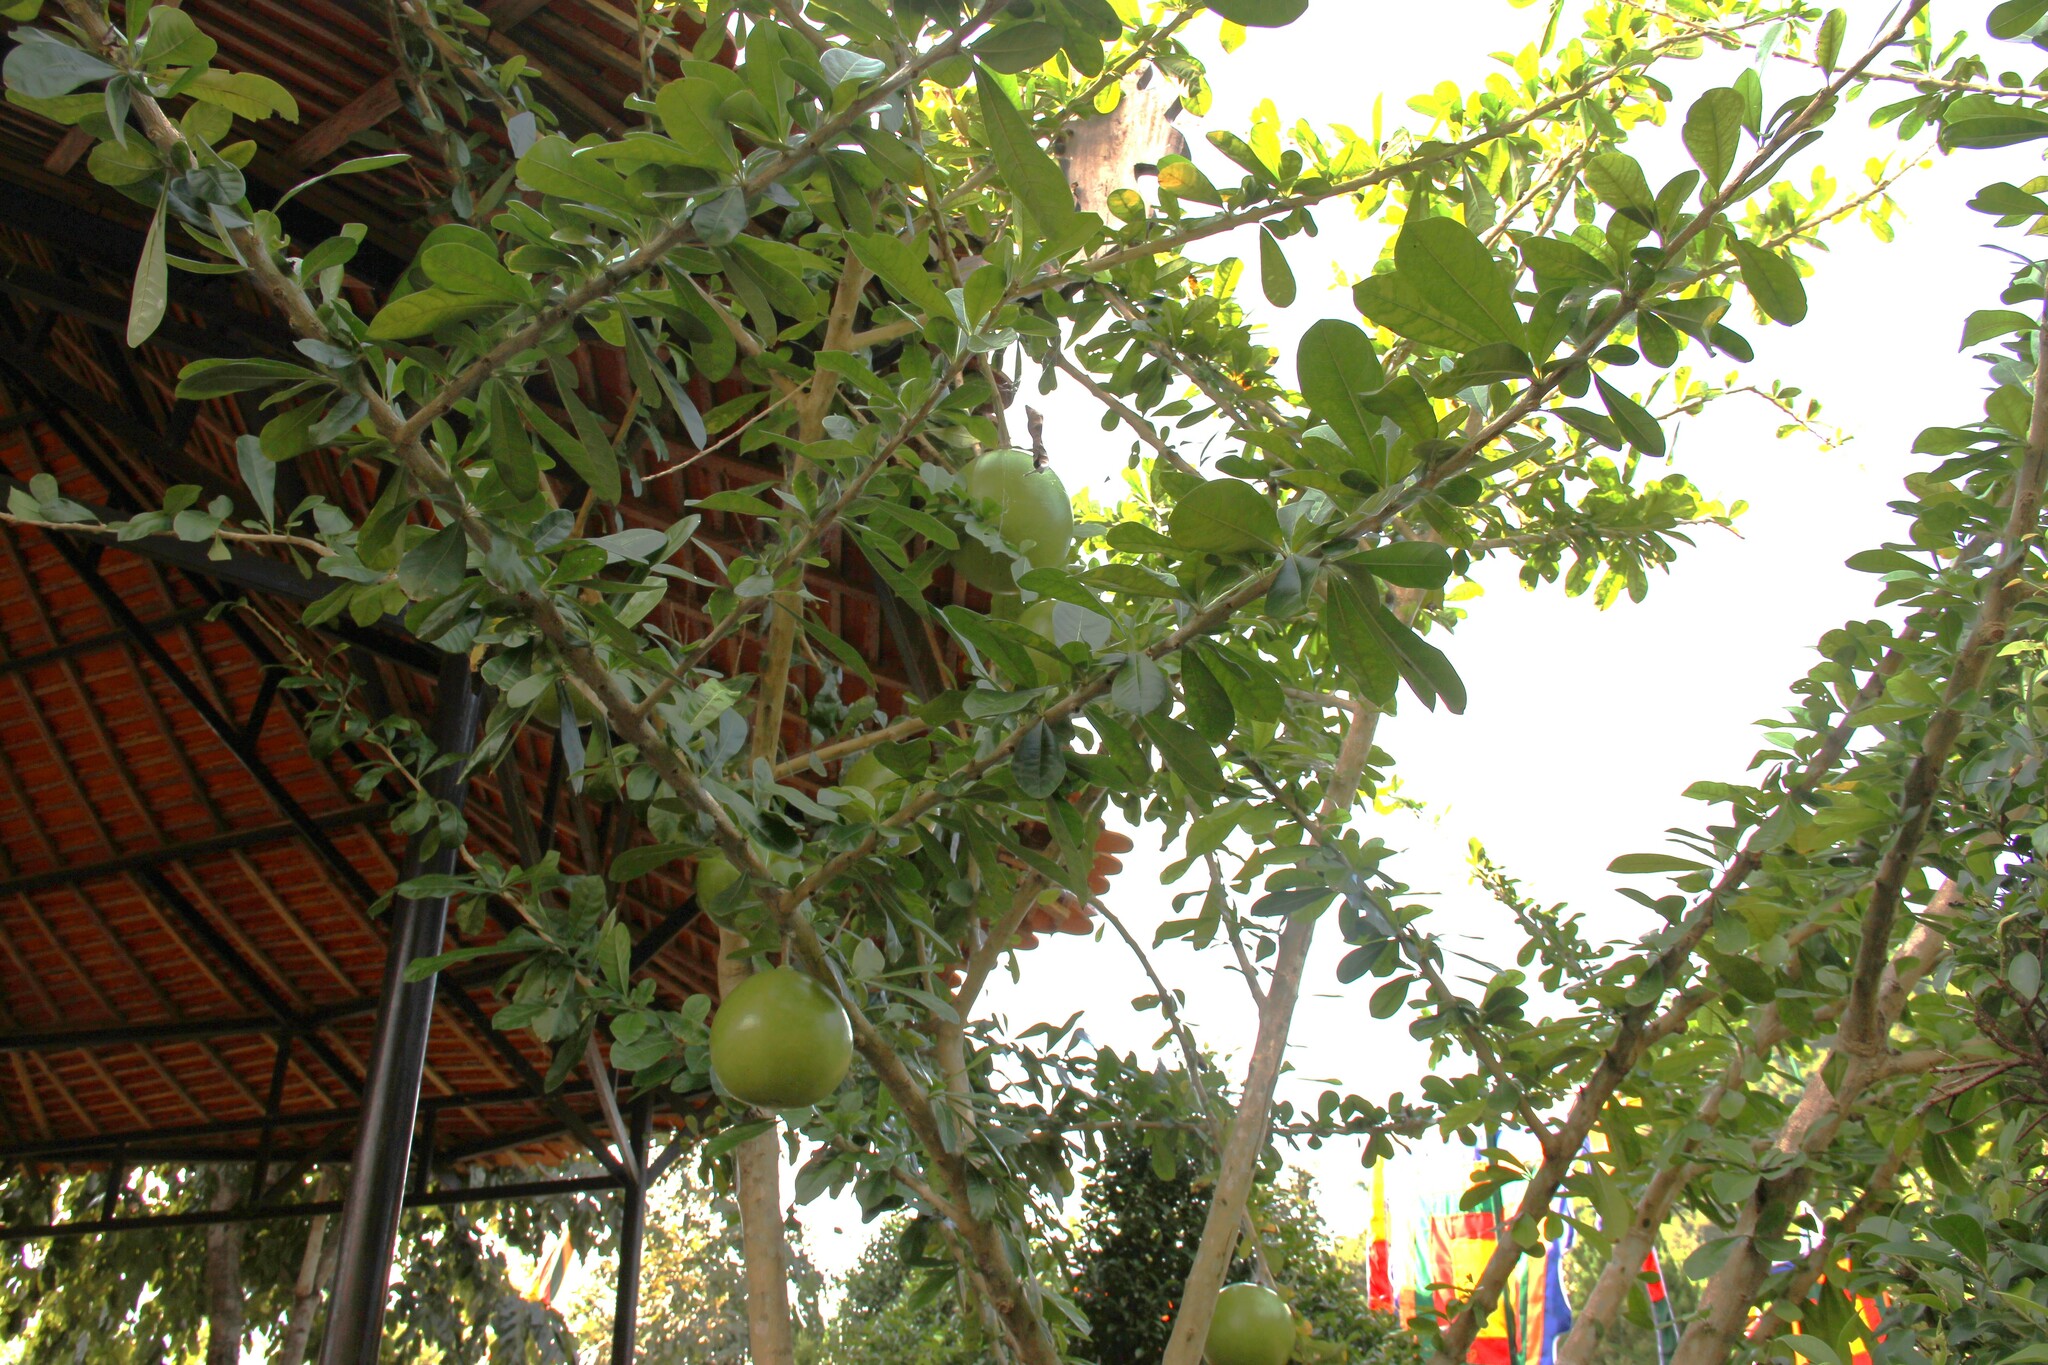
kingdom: Plantae
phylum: Tracheophyta
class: Magnoliopsida
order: Lamiales
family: Bignoniaceae
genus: Crescentia
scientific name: Crescentia cujete
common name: Calabash
